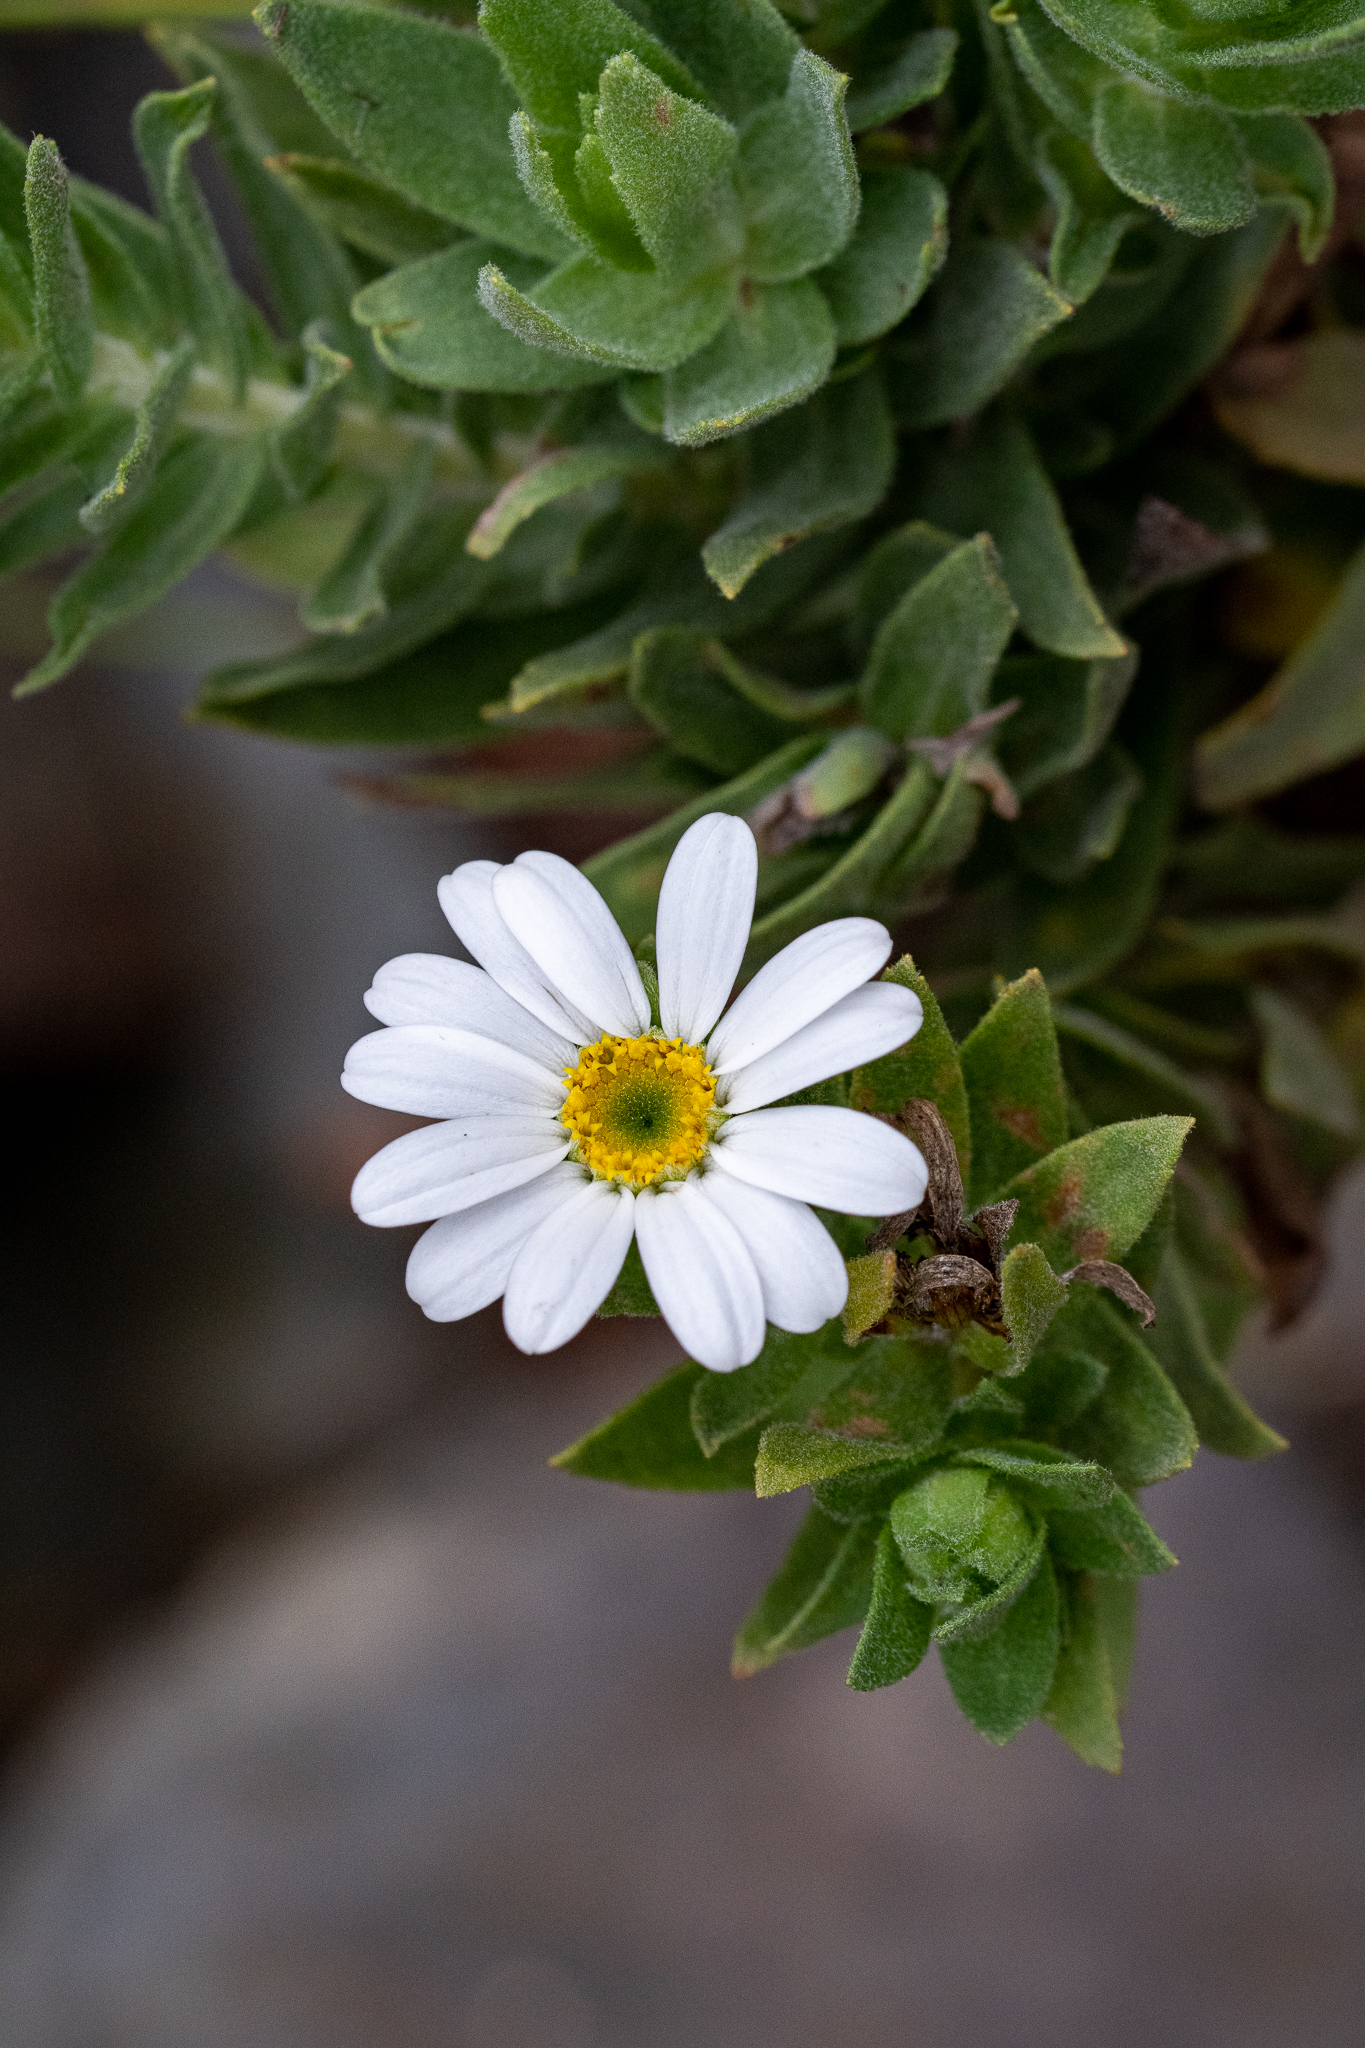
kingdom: Plantae
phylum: Tracheophyta
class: Magnoliopsida
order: Asterales
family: Asteraceae
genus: Osmitopsis
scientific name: Osmitopsis asteriscoides
